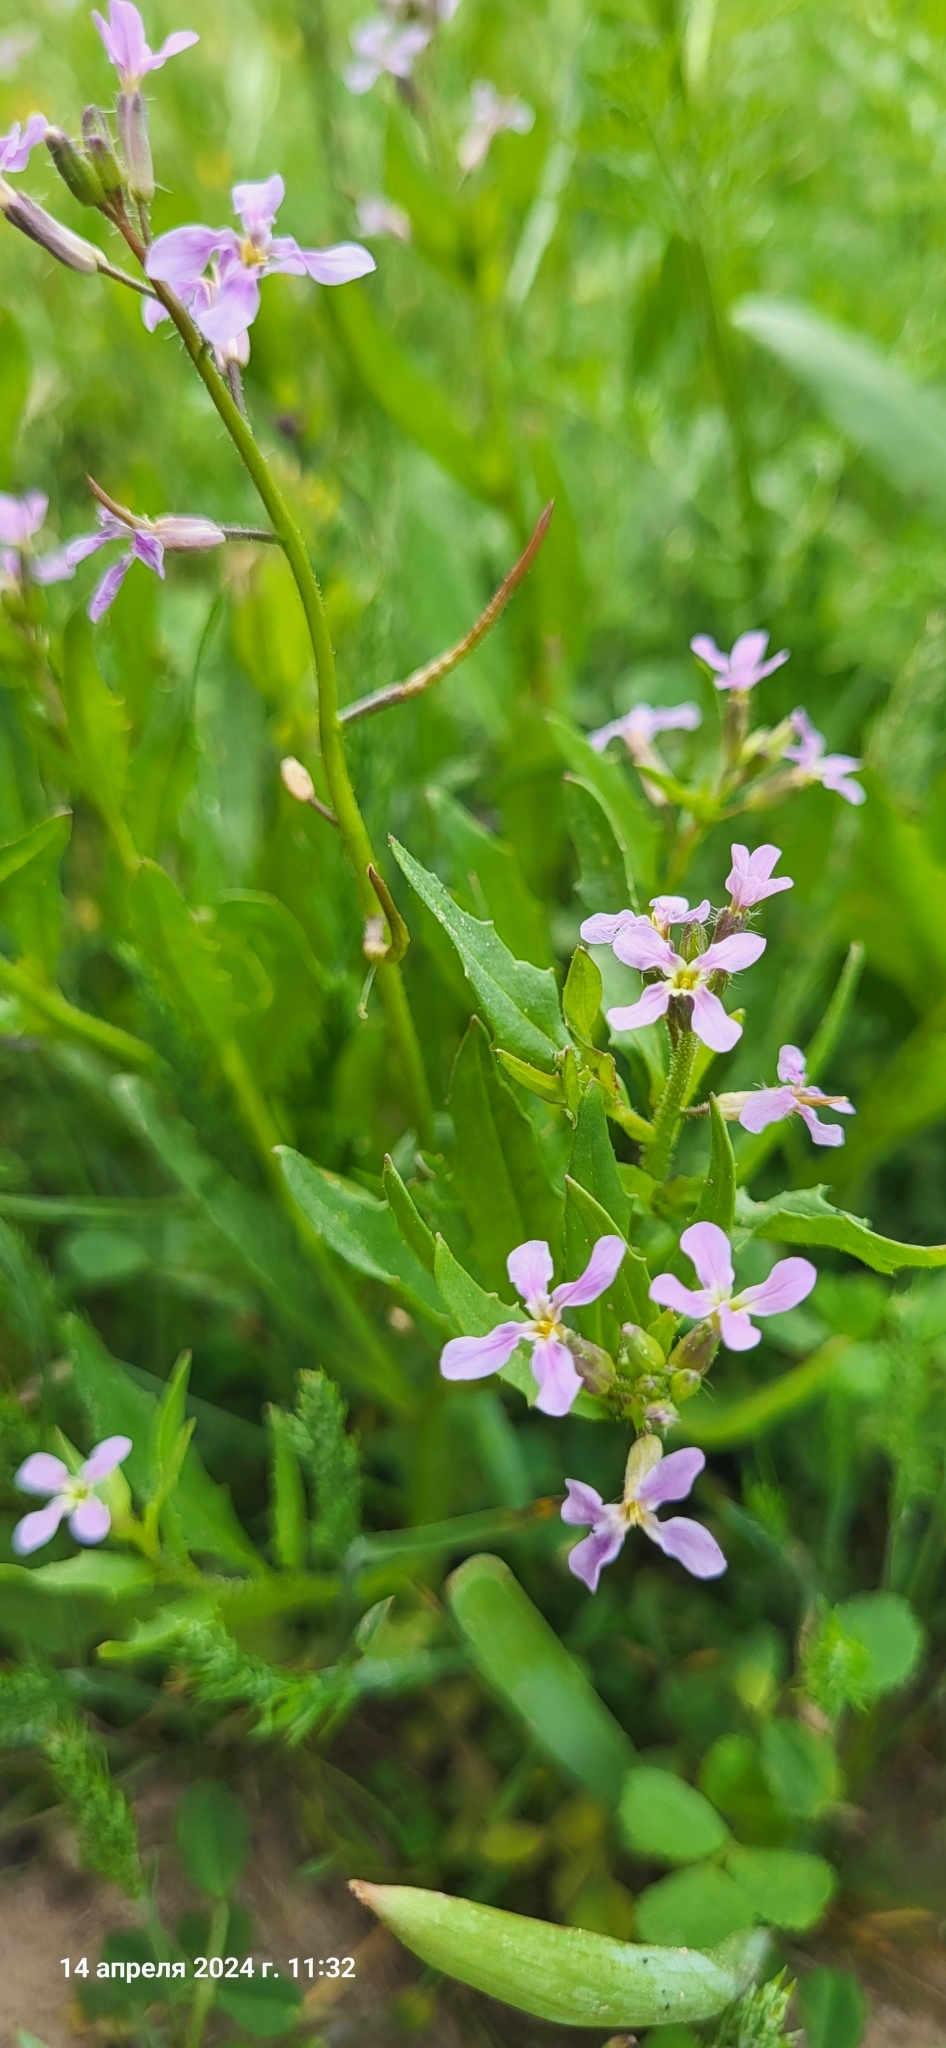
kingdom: Plantae
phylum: Tracheophyta
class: Magnoliopsida
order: Brassicales
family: Brassicaceae
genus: Chorispora
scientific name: Chorispora tenella
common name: Crossflower
